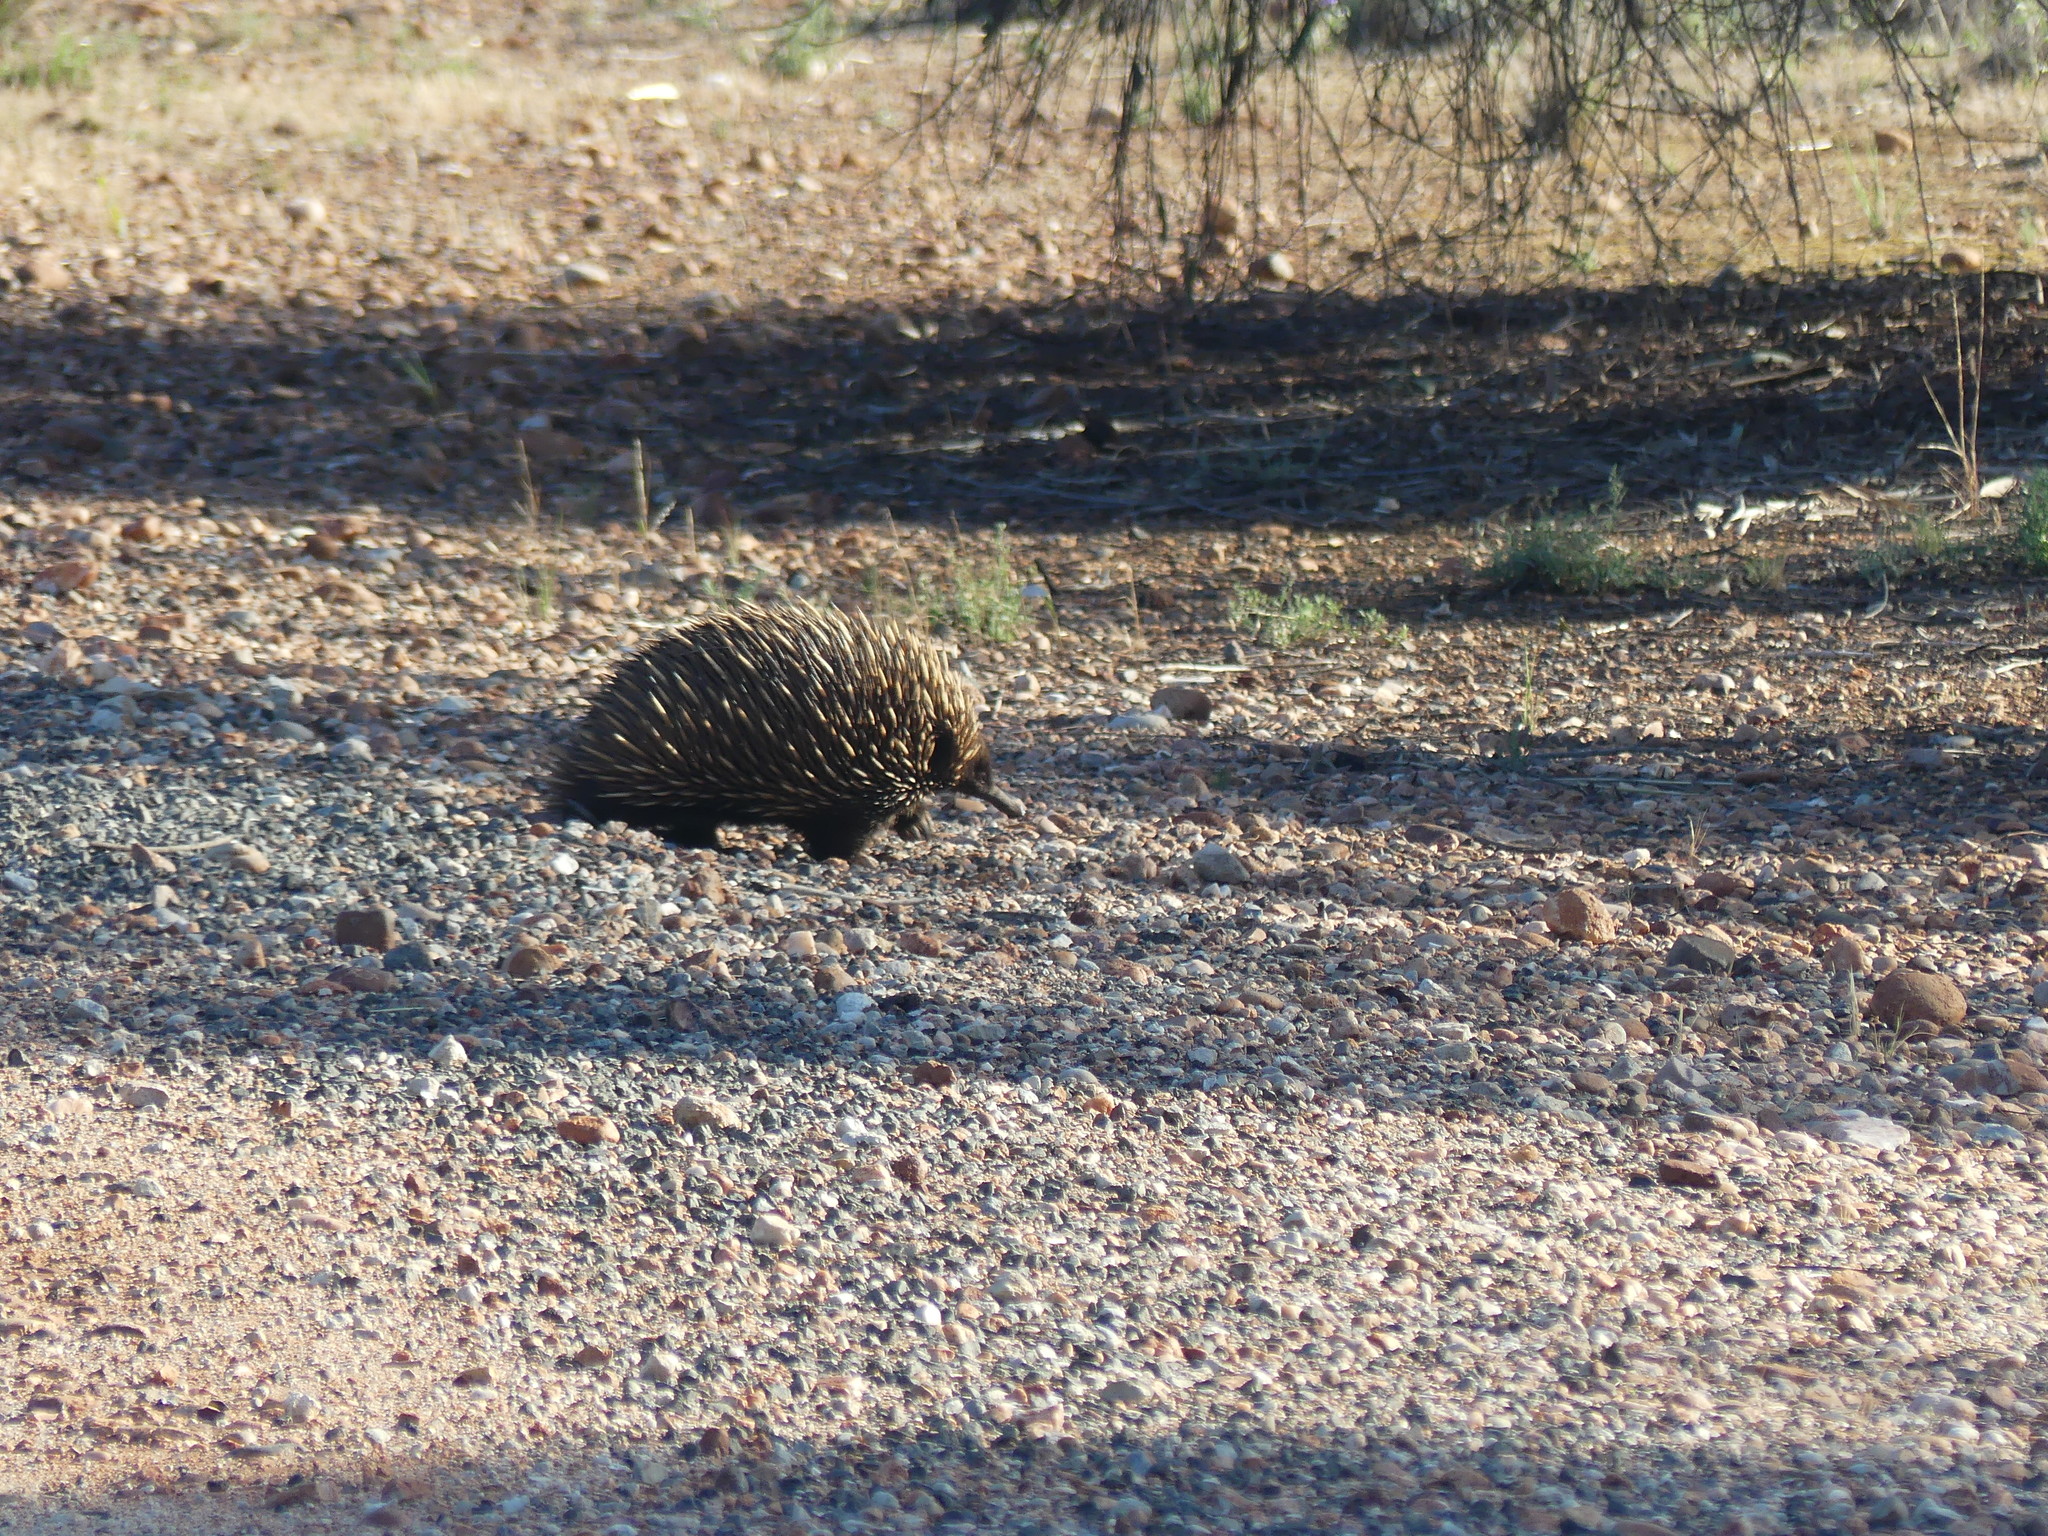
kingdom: Animalia
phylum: Chordata
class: Mammalia
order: Monotremata
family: Tachyglossidae
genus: Tachyglossus
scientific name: Tachyglossus aculeatus
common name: Short-beaked echidna
